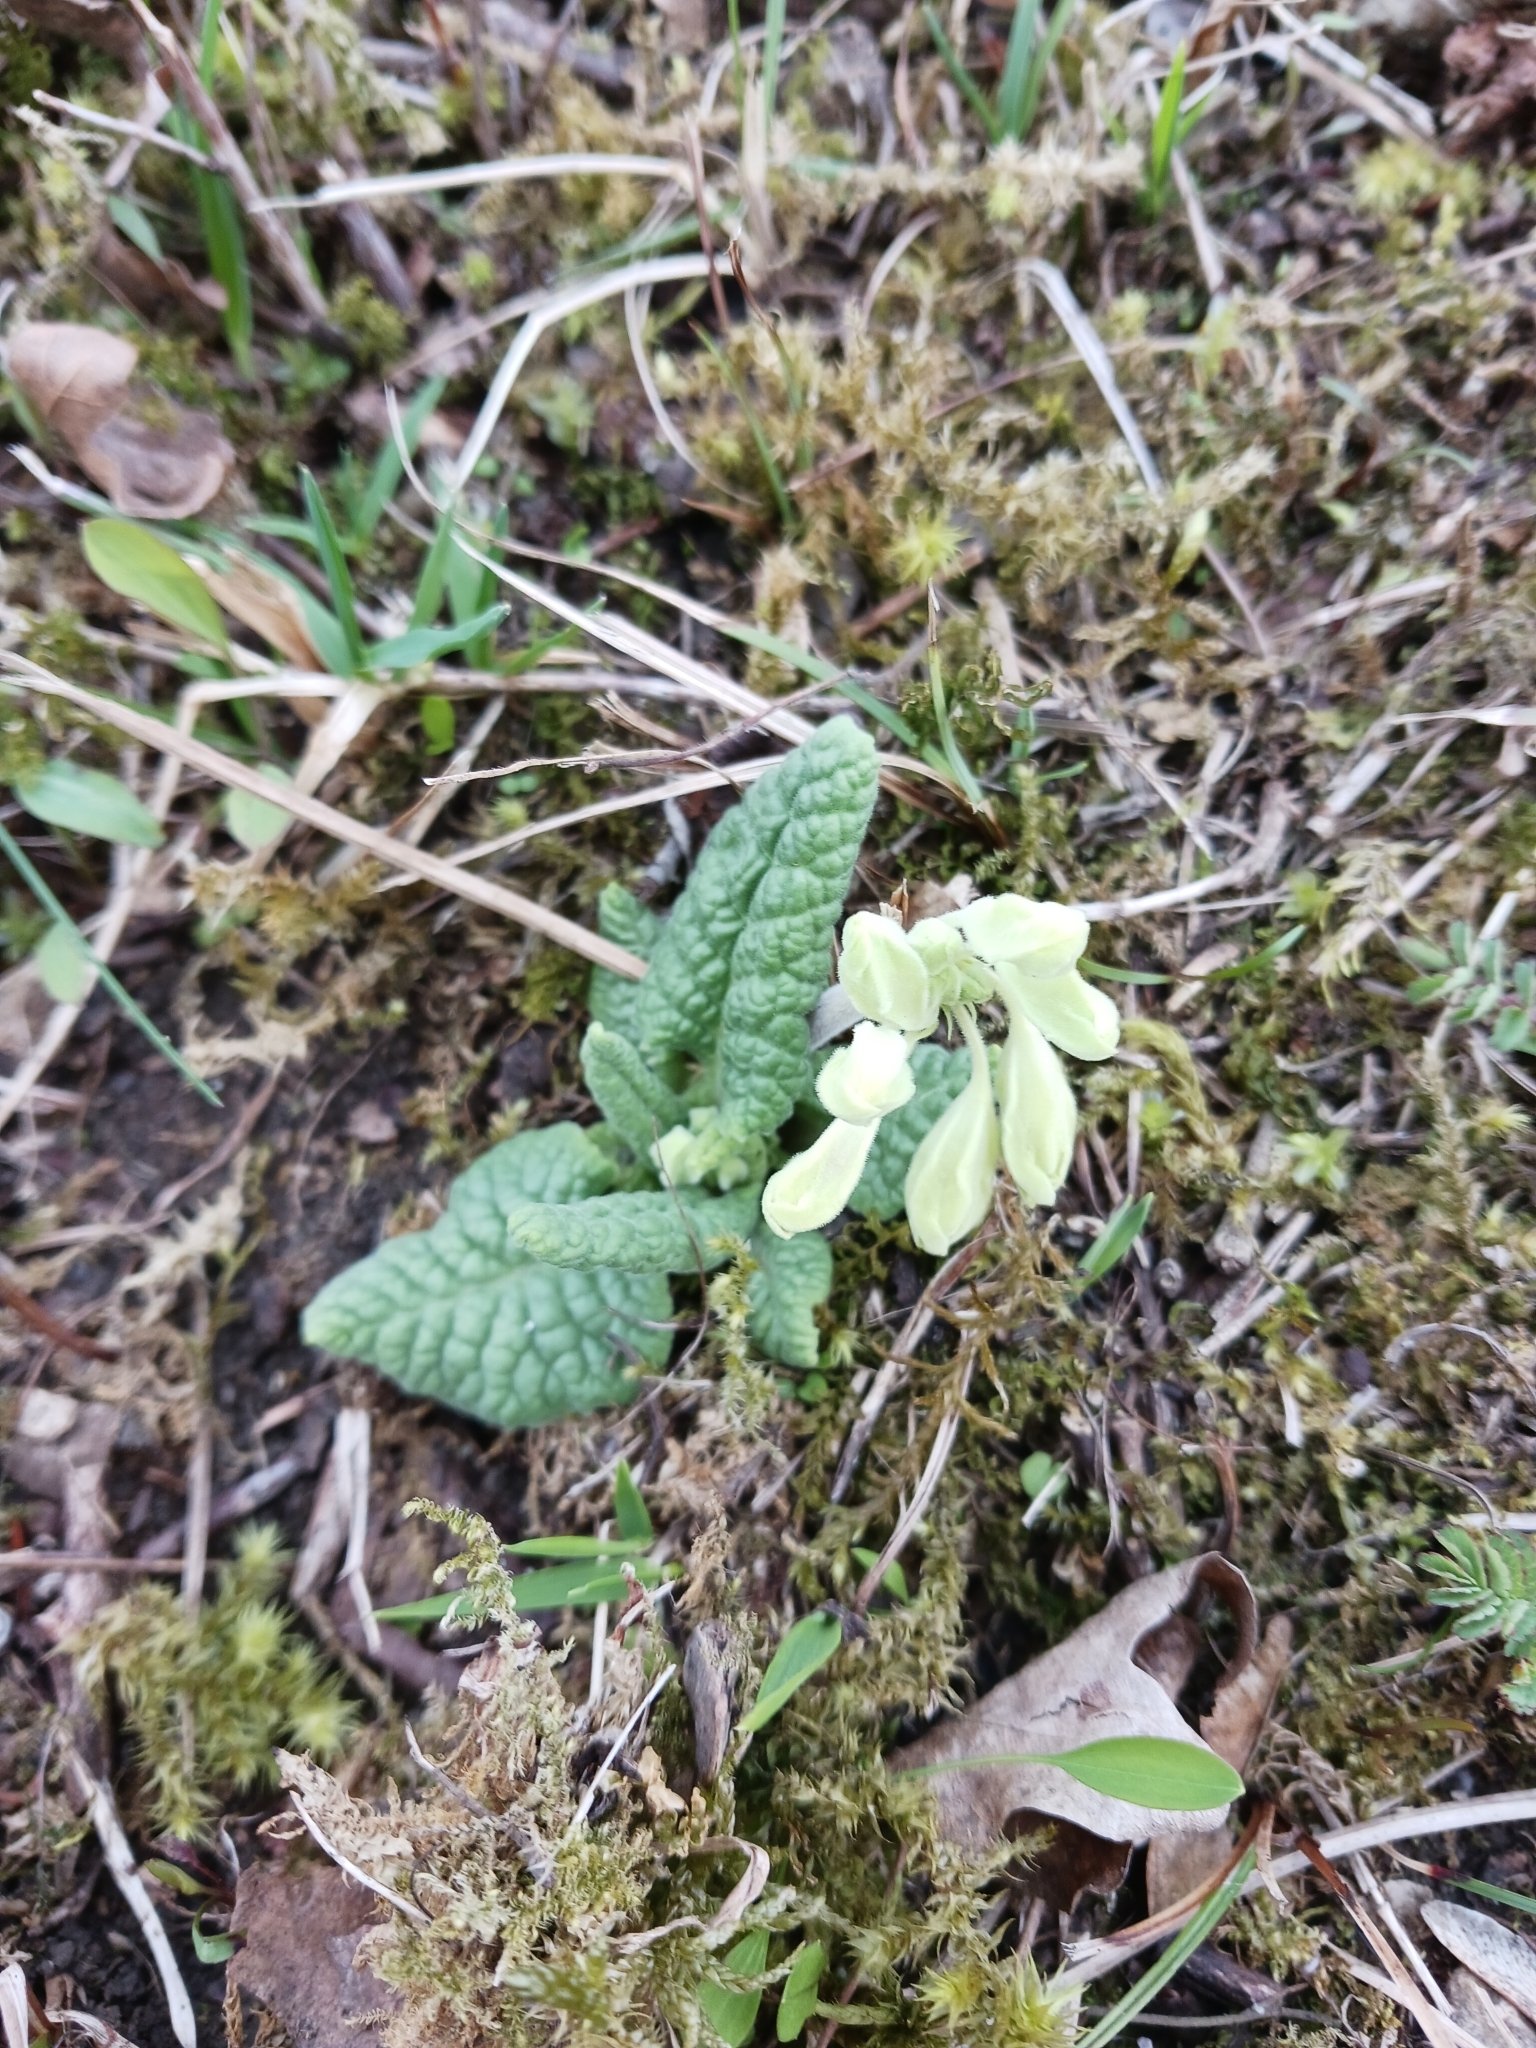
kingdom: Plantae
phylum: Tracheophyta
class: Magnoliopsida
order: Ericales
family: Primulaceae
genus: Primula
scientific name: Primula veris
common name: Cowslip
